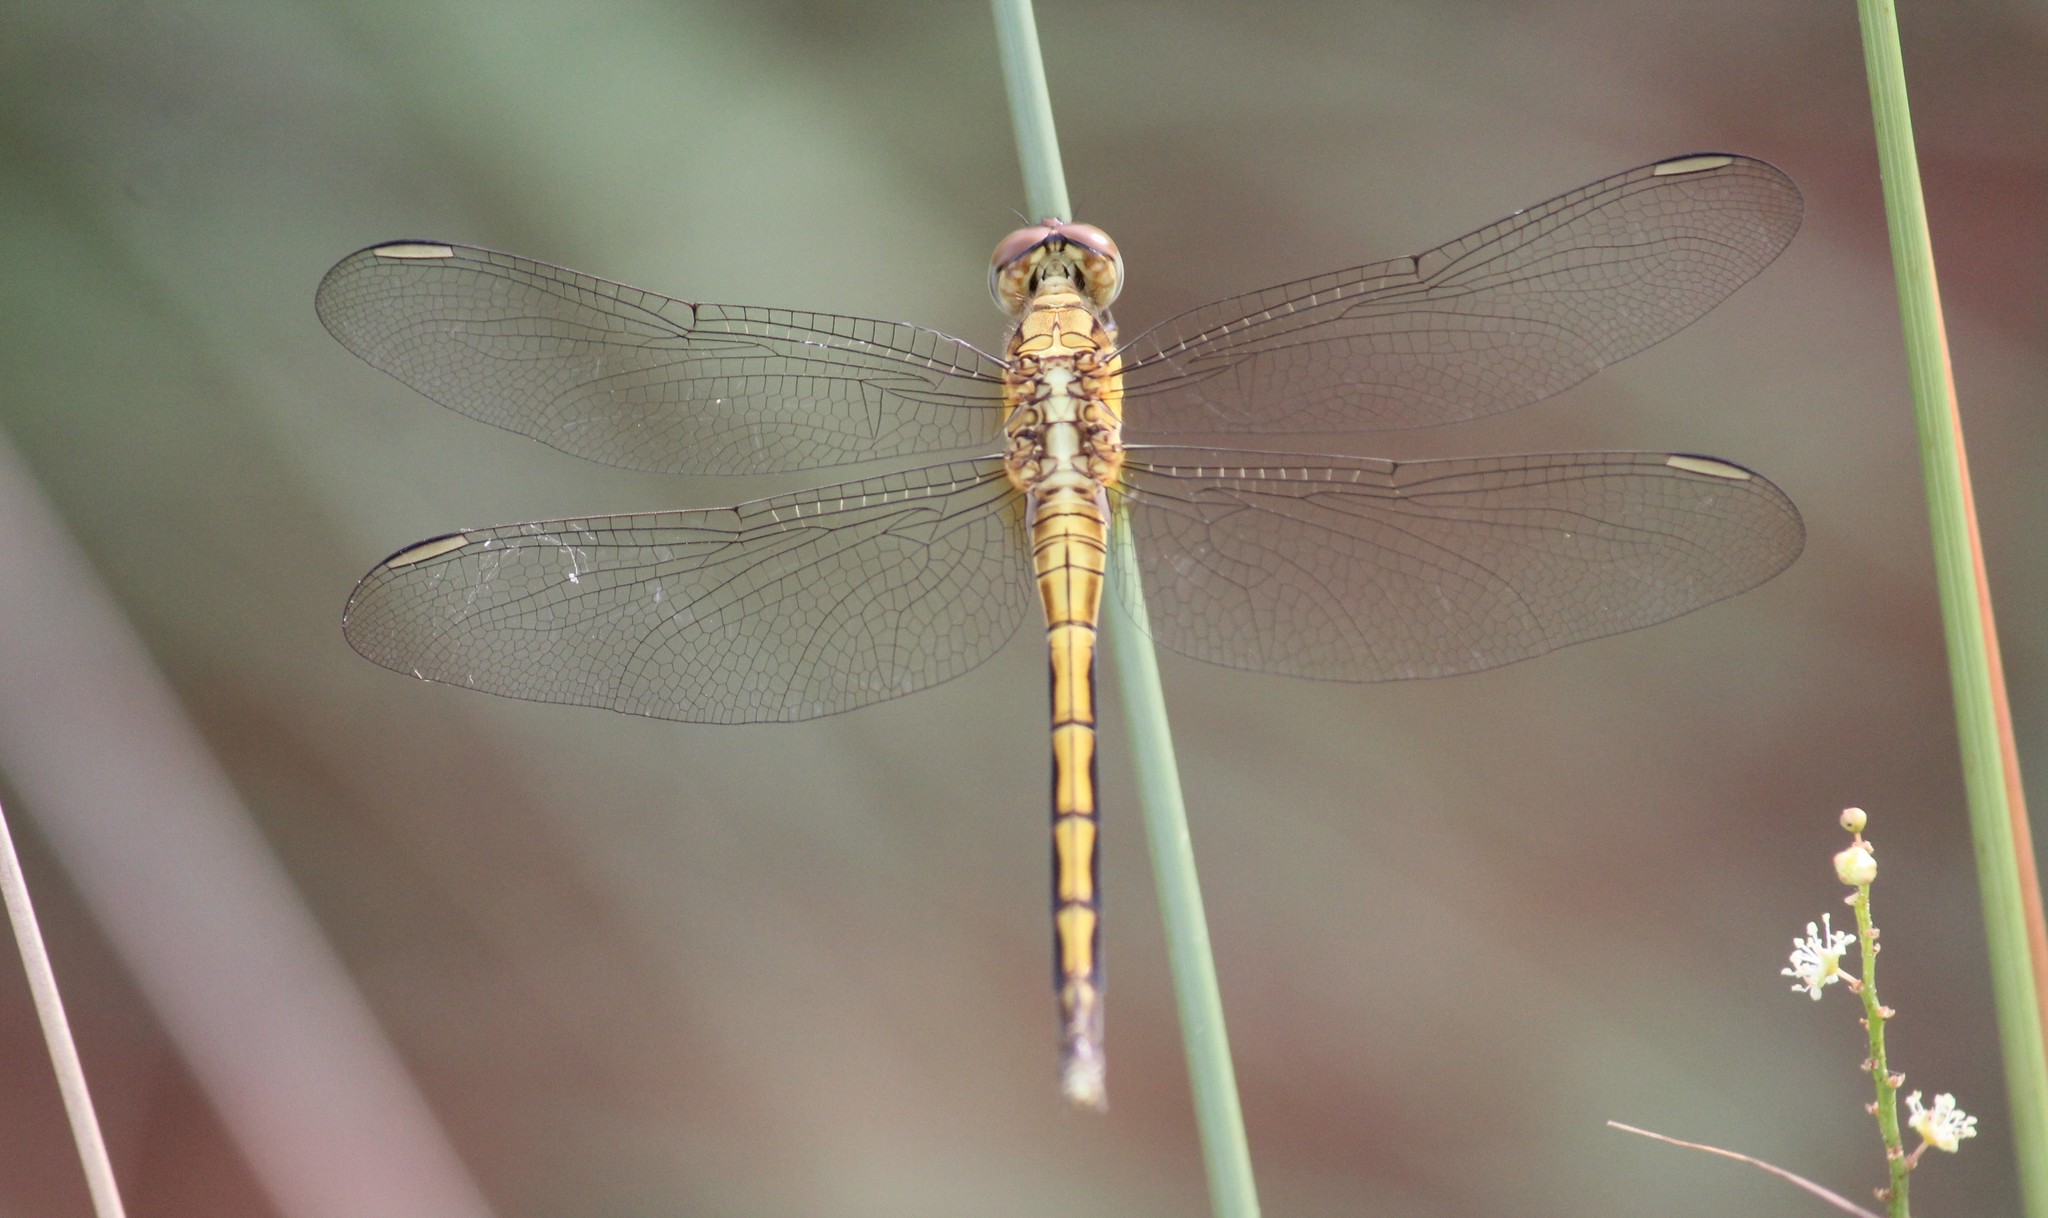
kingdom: Animalia
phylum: Arthropoda
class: Insecta
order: Odonata
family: Libellulidae
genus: Orthetrum
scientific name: Orthetrum luzonicum
